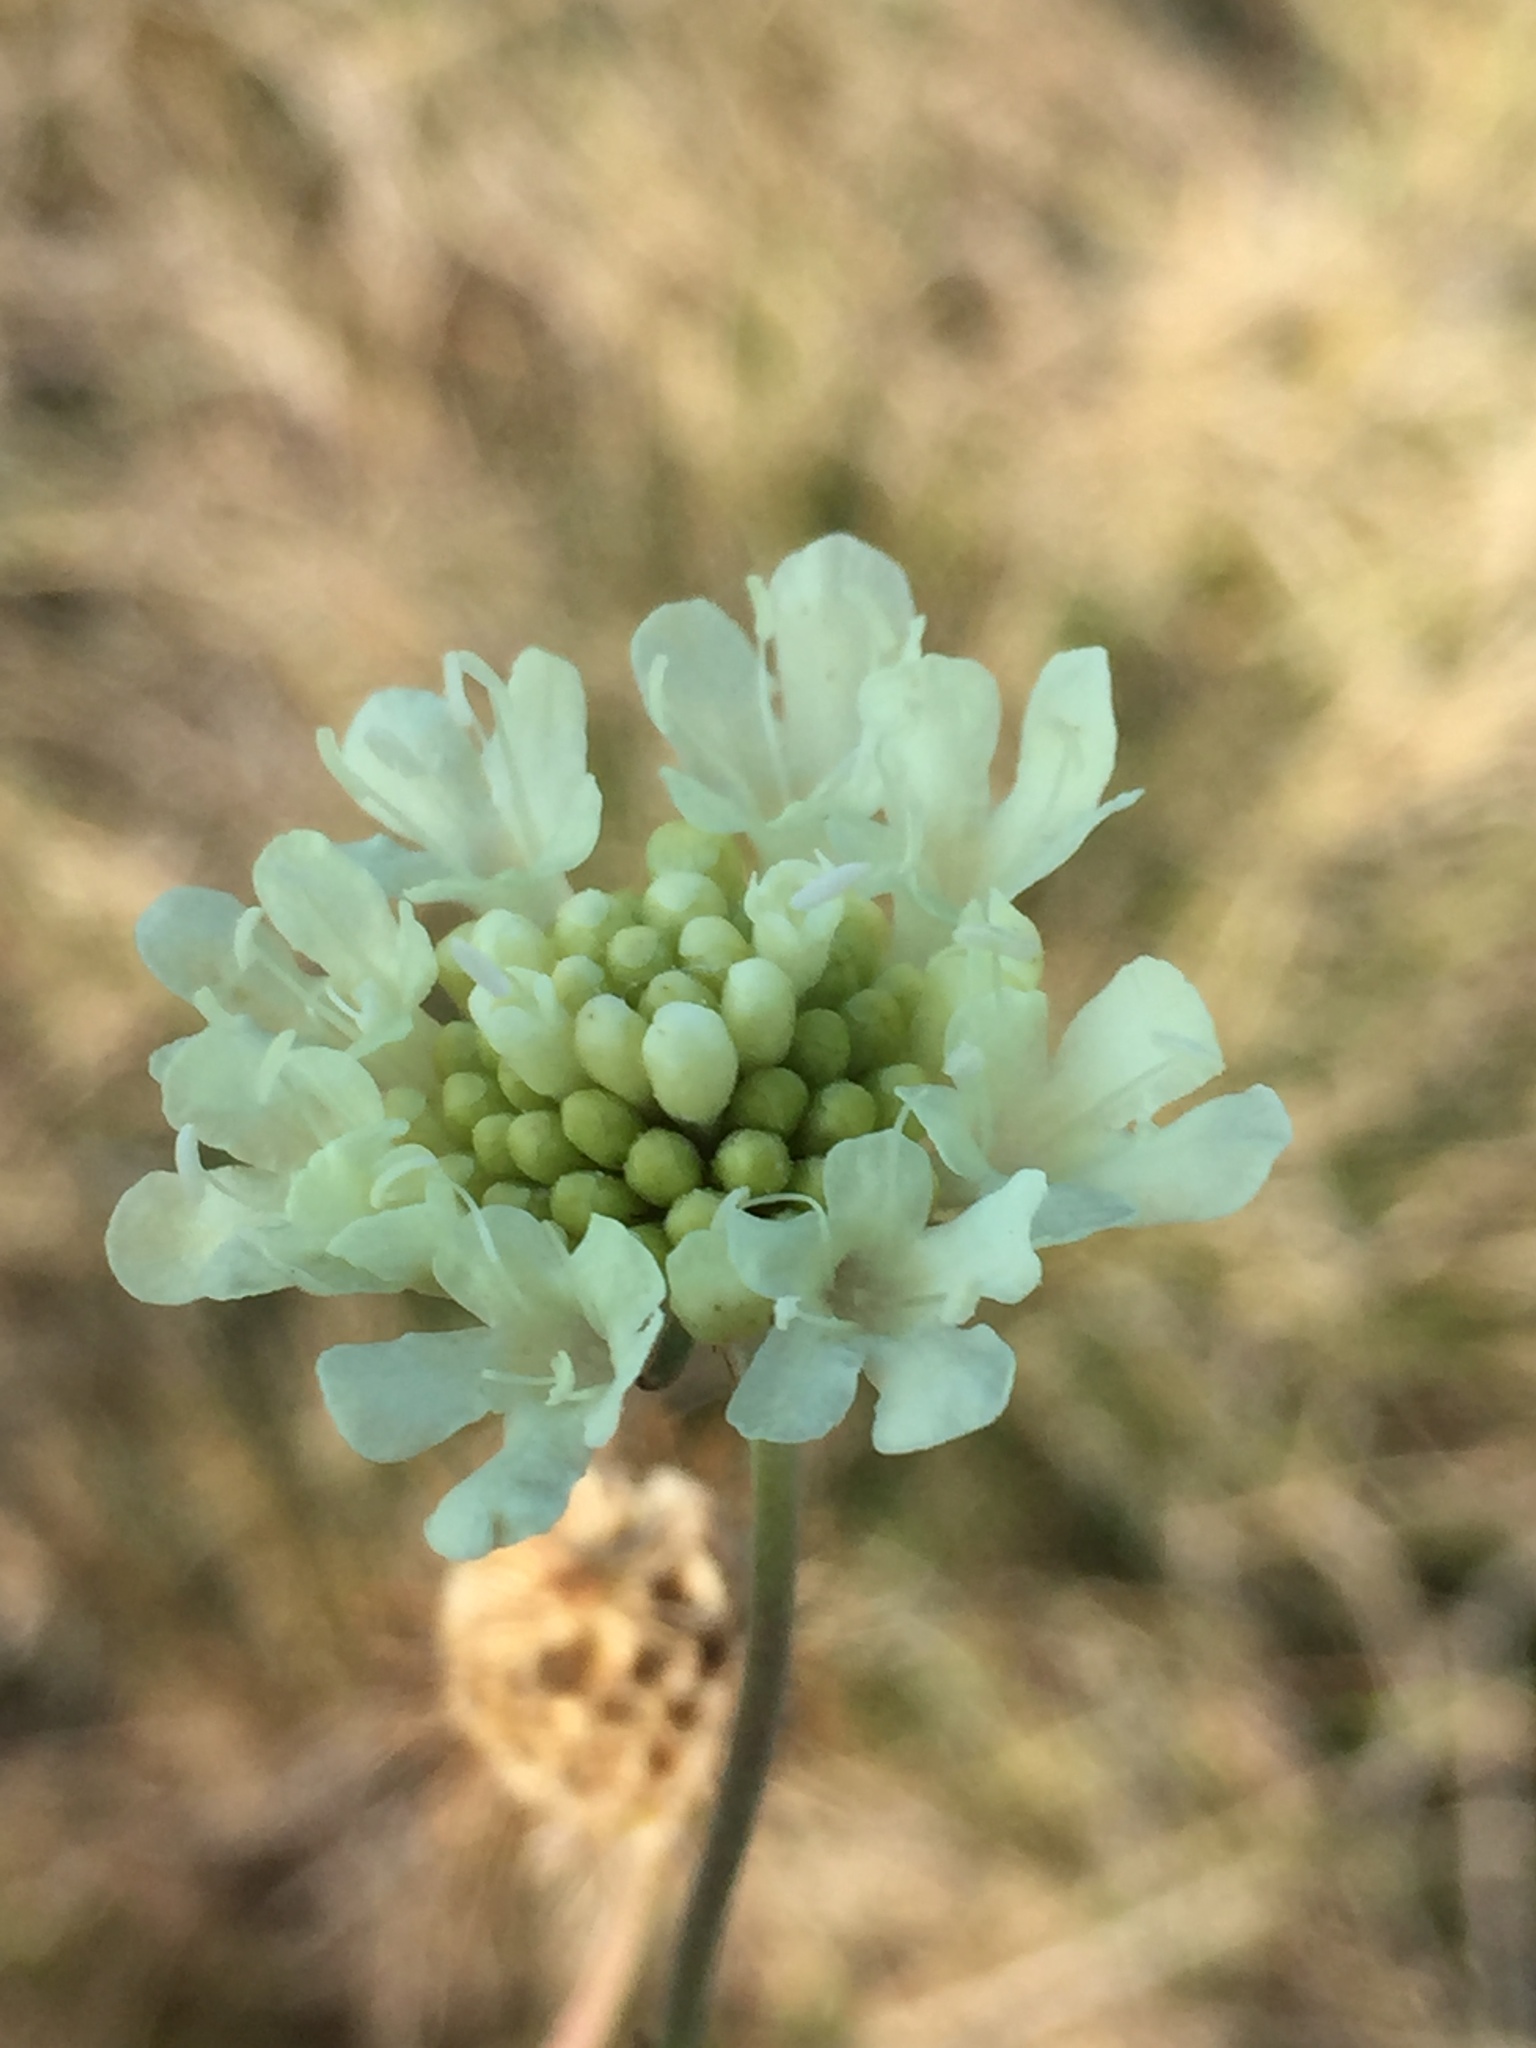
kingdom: Plantae
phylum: Tracheophyta
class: Magnoliopsida
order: Dipsacales
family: Caprifoliaceae
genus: Scabiosa
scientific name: Scabiosa ochroleuca
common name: Cream pincushions
